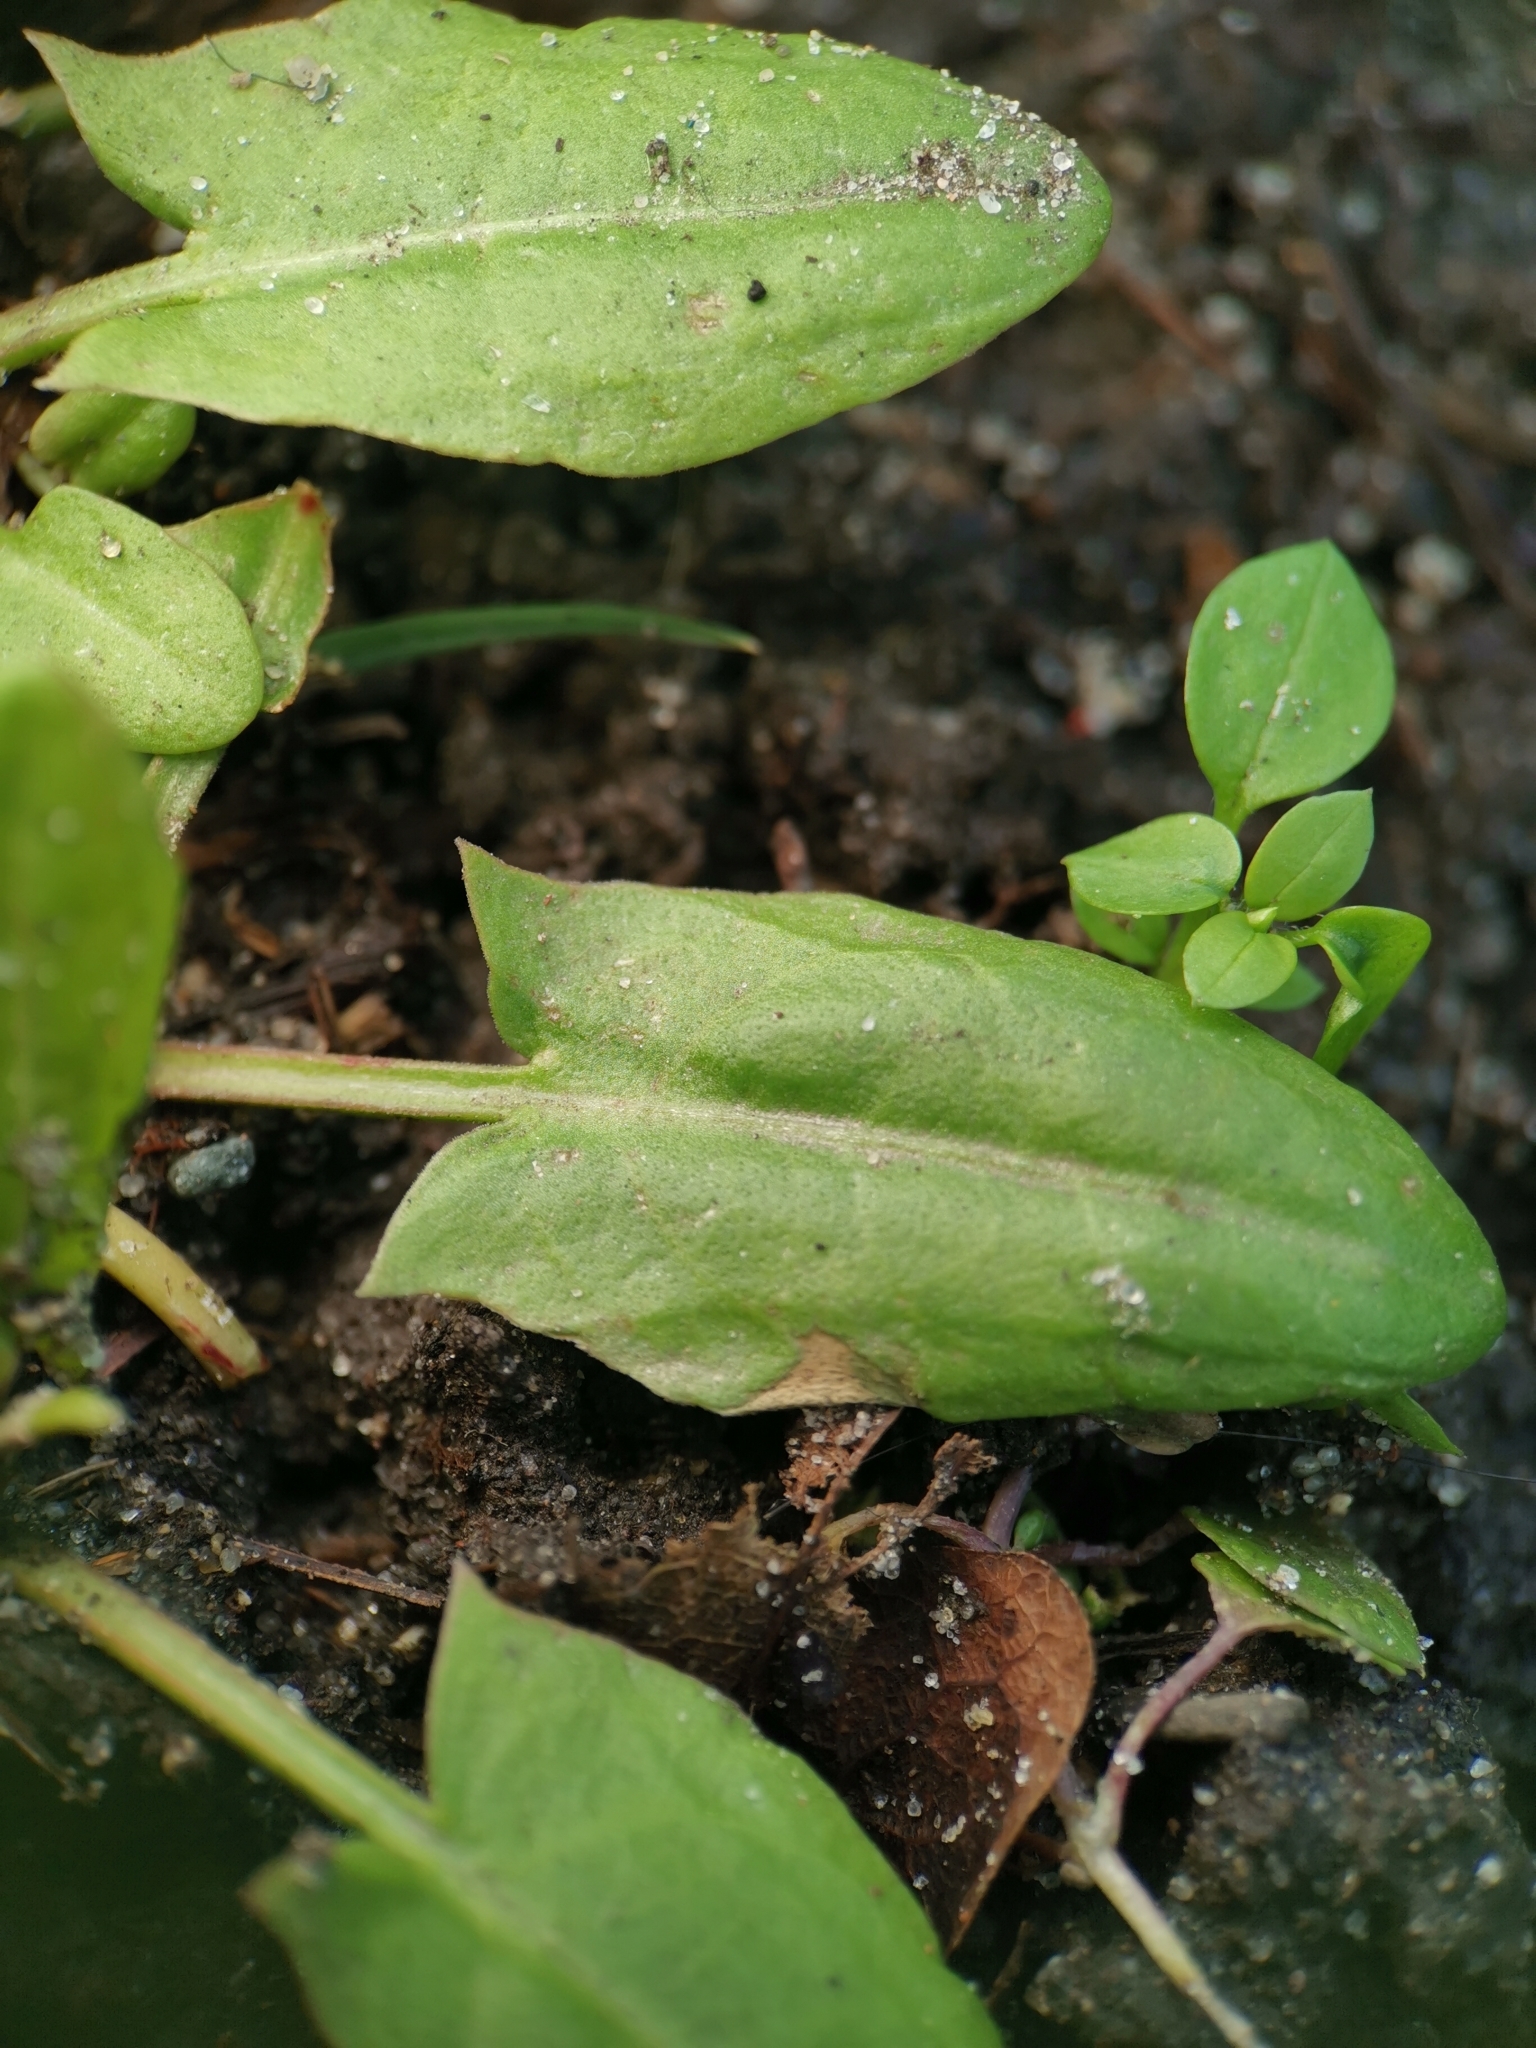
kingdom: Plantae
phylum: Tracheophyta
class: Magnoliopsida
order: Caryophyllales
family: Polygonaceae
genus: Rumex
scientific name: Rumex acetosa
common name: Garden sorrel
